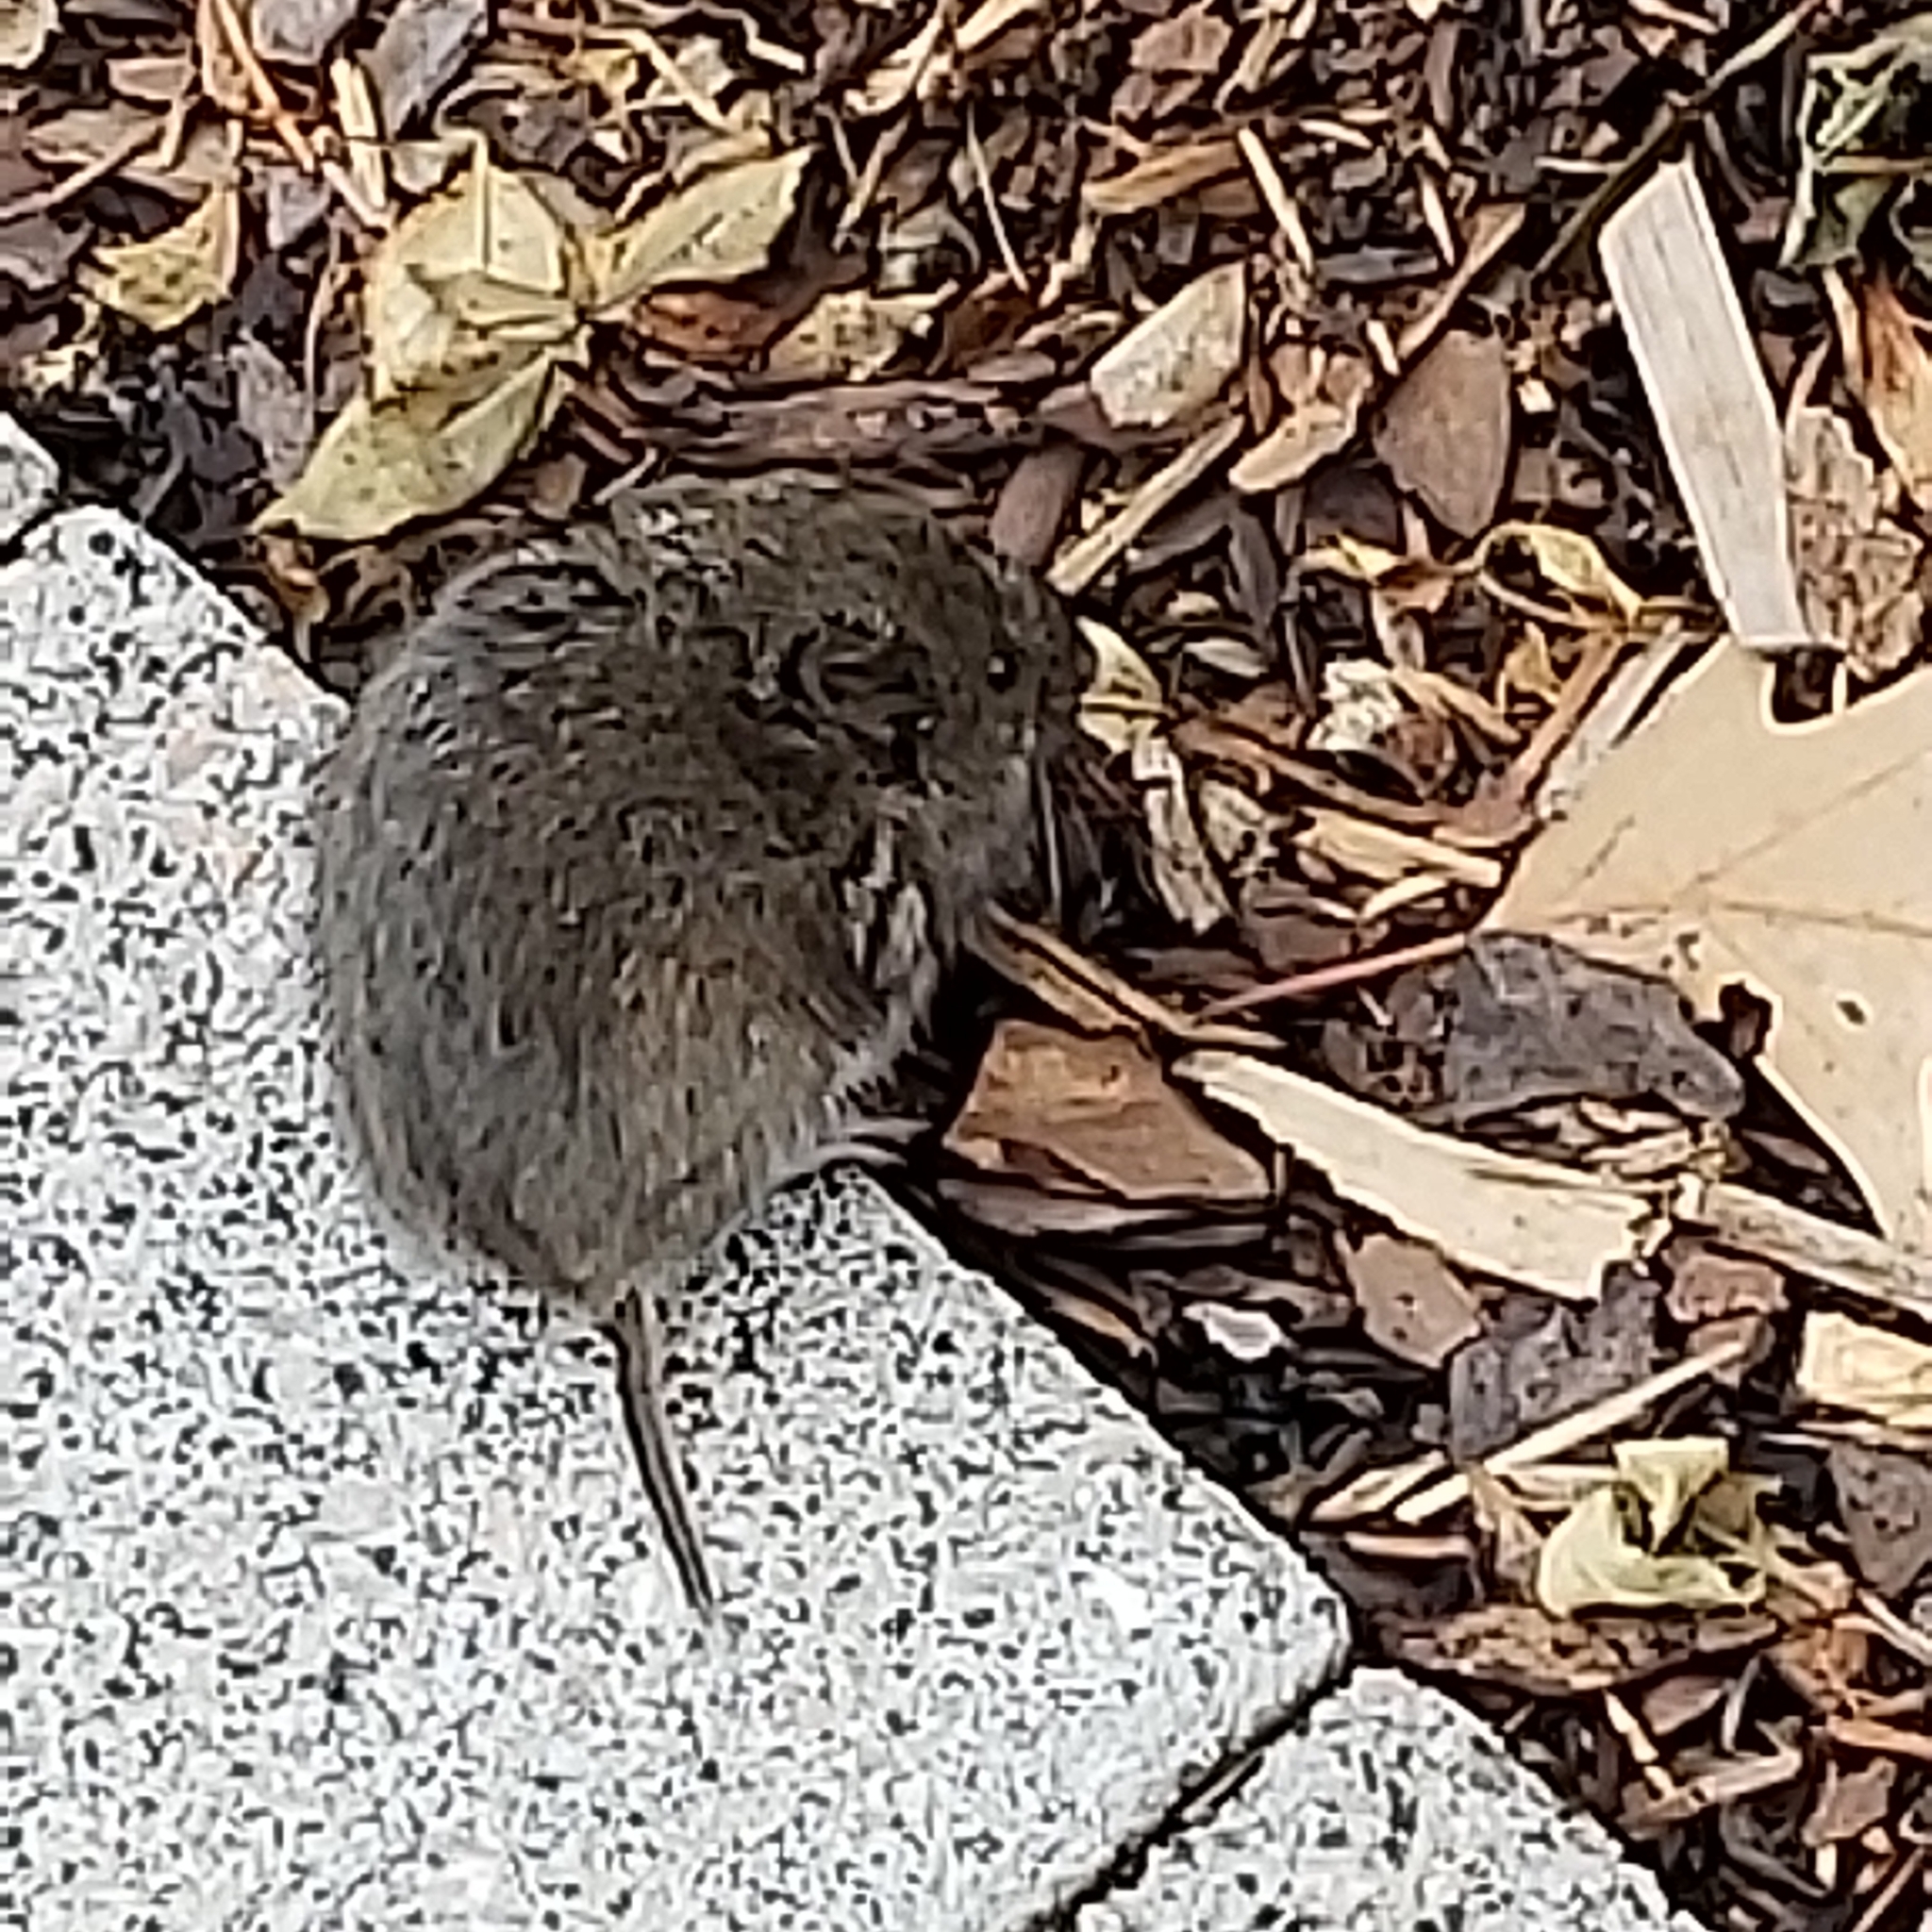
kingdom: Animalia
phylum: Chordata
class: Mammalia
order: Rodentia
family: Cricetidae
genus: Microtus
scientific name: Microtus pennsylvanicus
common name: Meadow vole
